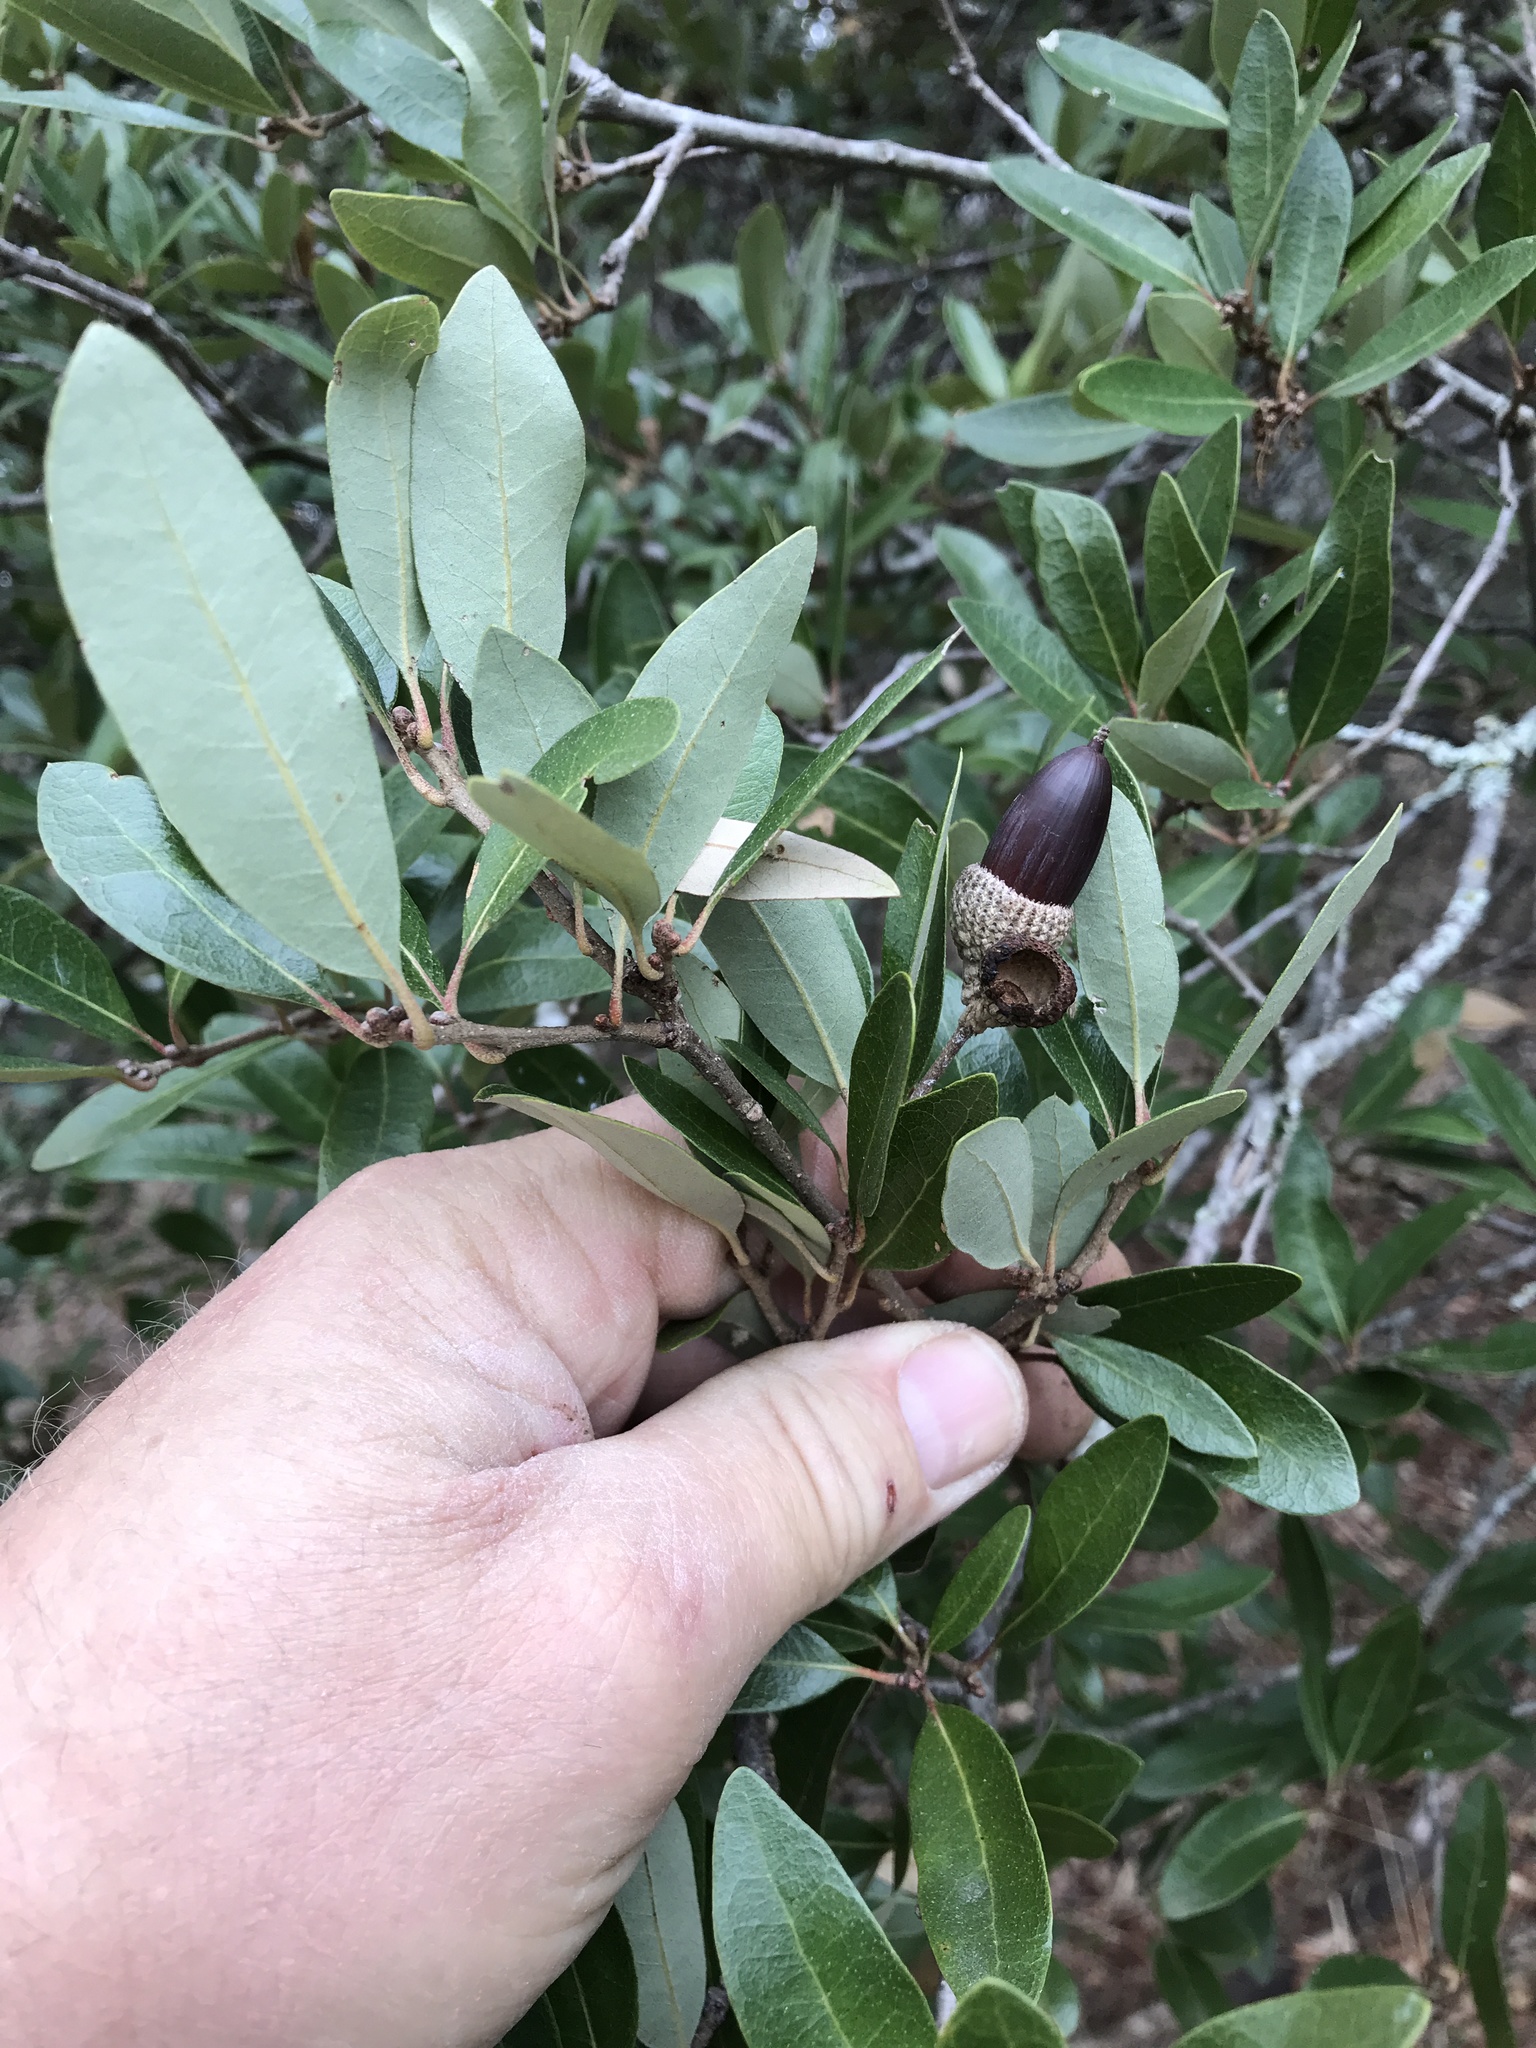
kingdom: Plantae
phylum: Tracheophyta
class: Magnoliopsida
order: Fagales
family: Fagaceae
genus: Quercus
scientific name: Quercus fusiformis
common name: Texas live oak
